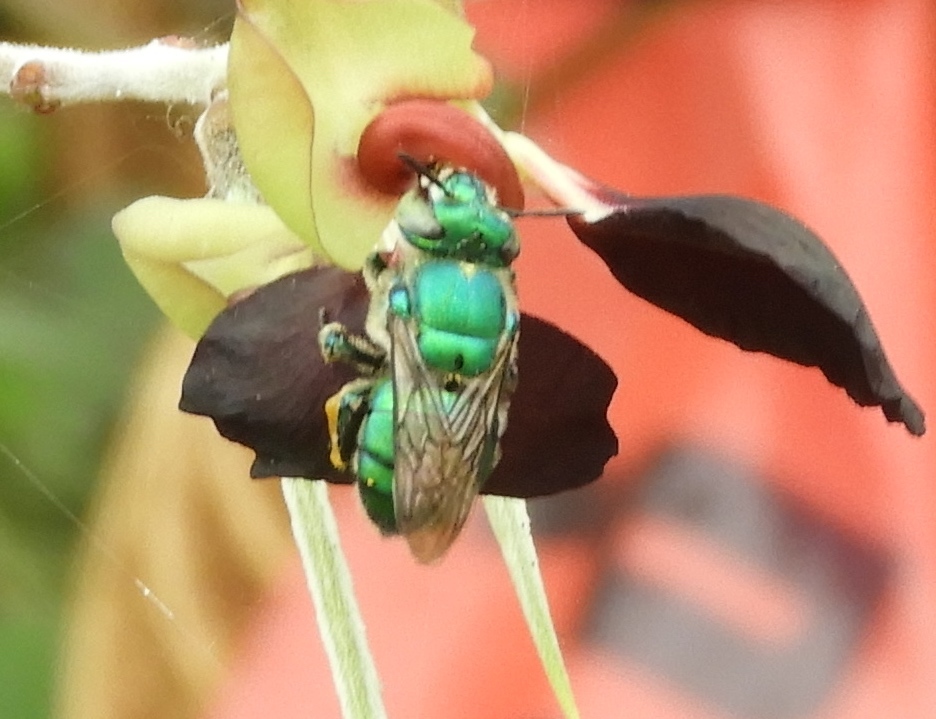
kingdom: Animalia
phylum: Arthropoda
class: Insecta
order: Hymenoptera
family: Apidae
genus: Euglossa
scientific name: Euglossa
